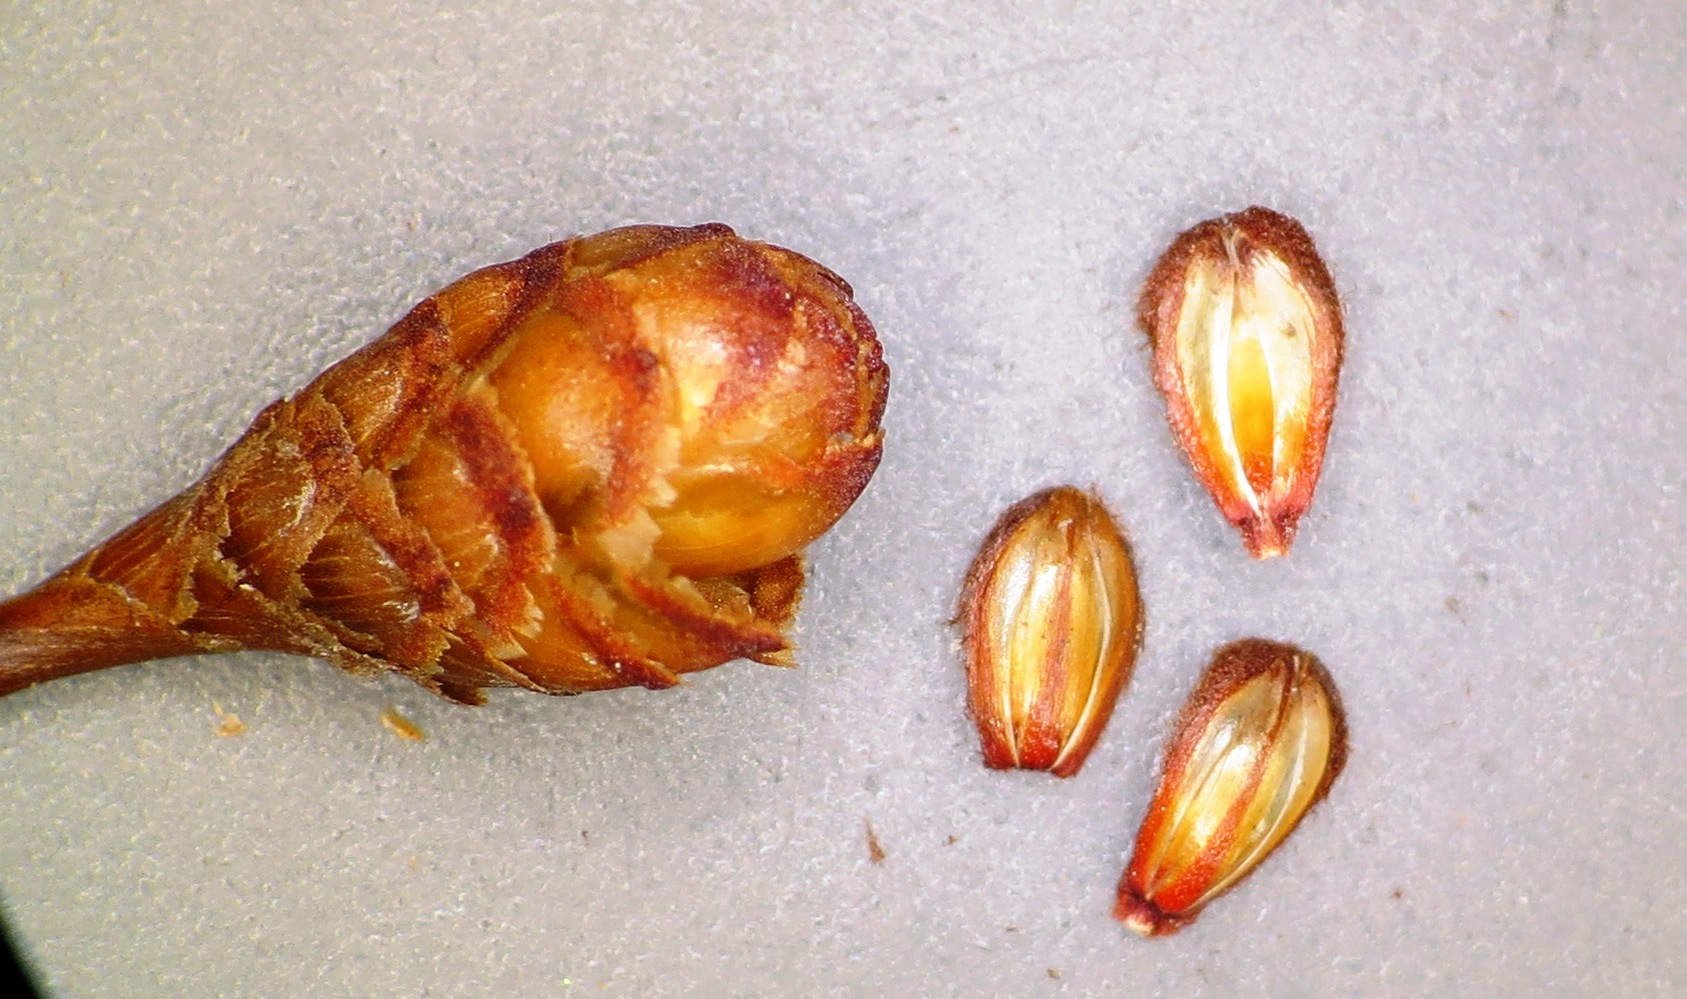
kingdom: Plantae
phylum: Tracheophyta
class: Liliopsida
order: Poales
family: Restionaceae
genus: Restio
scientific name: Restio bifurcus
